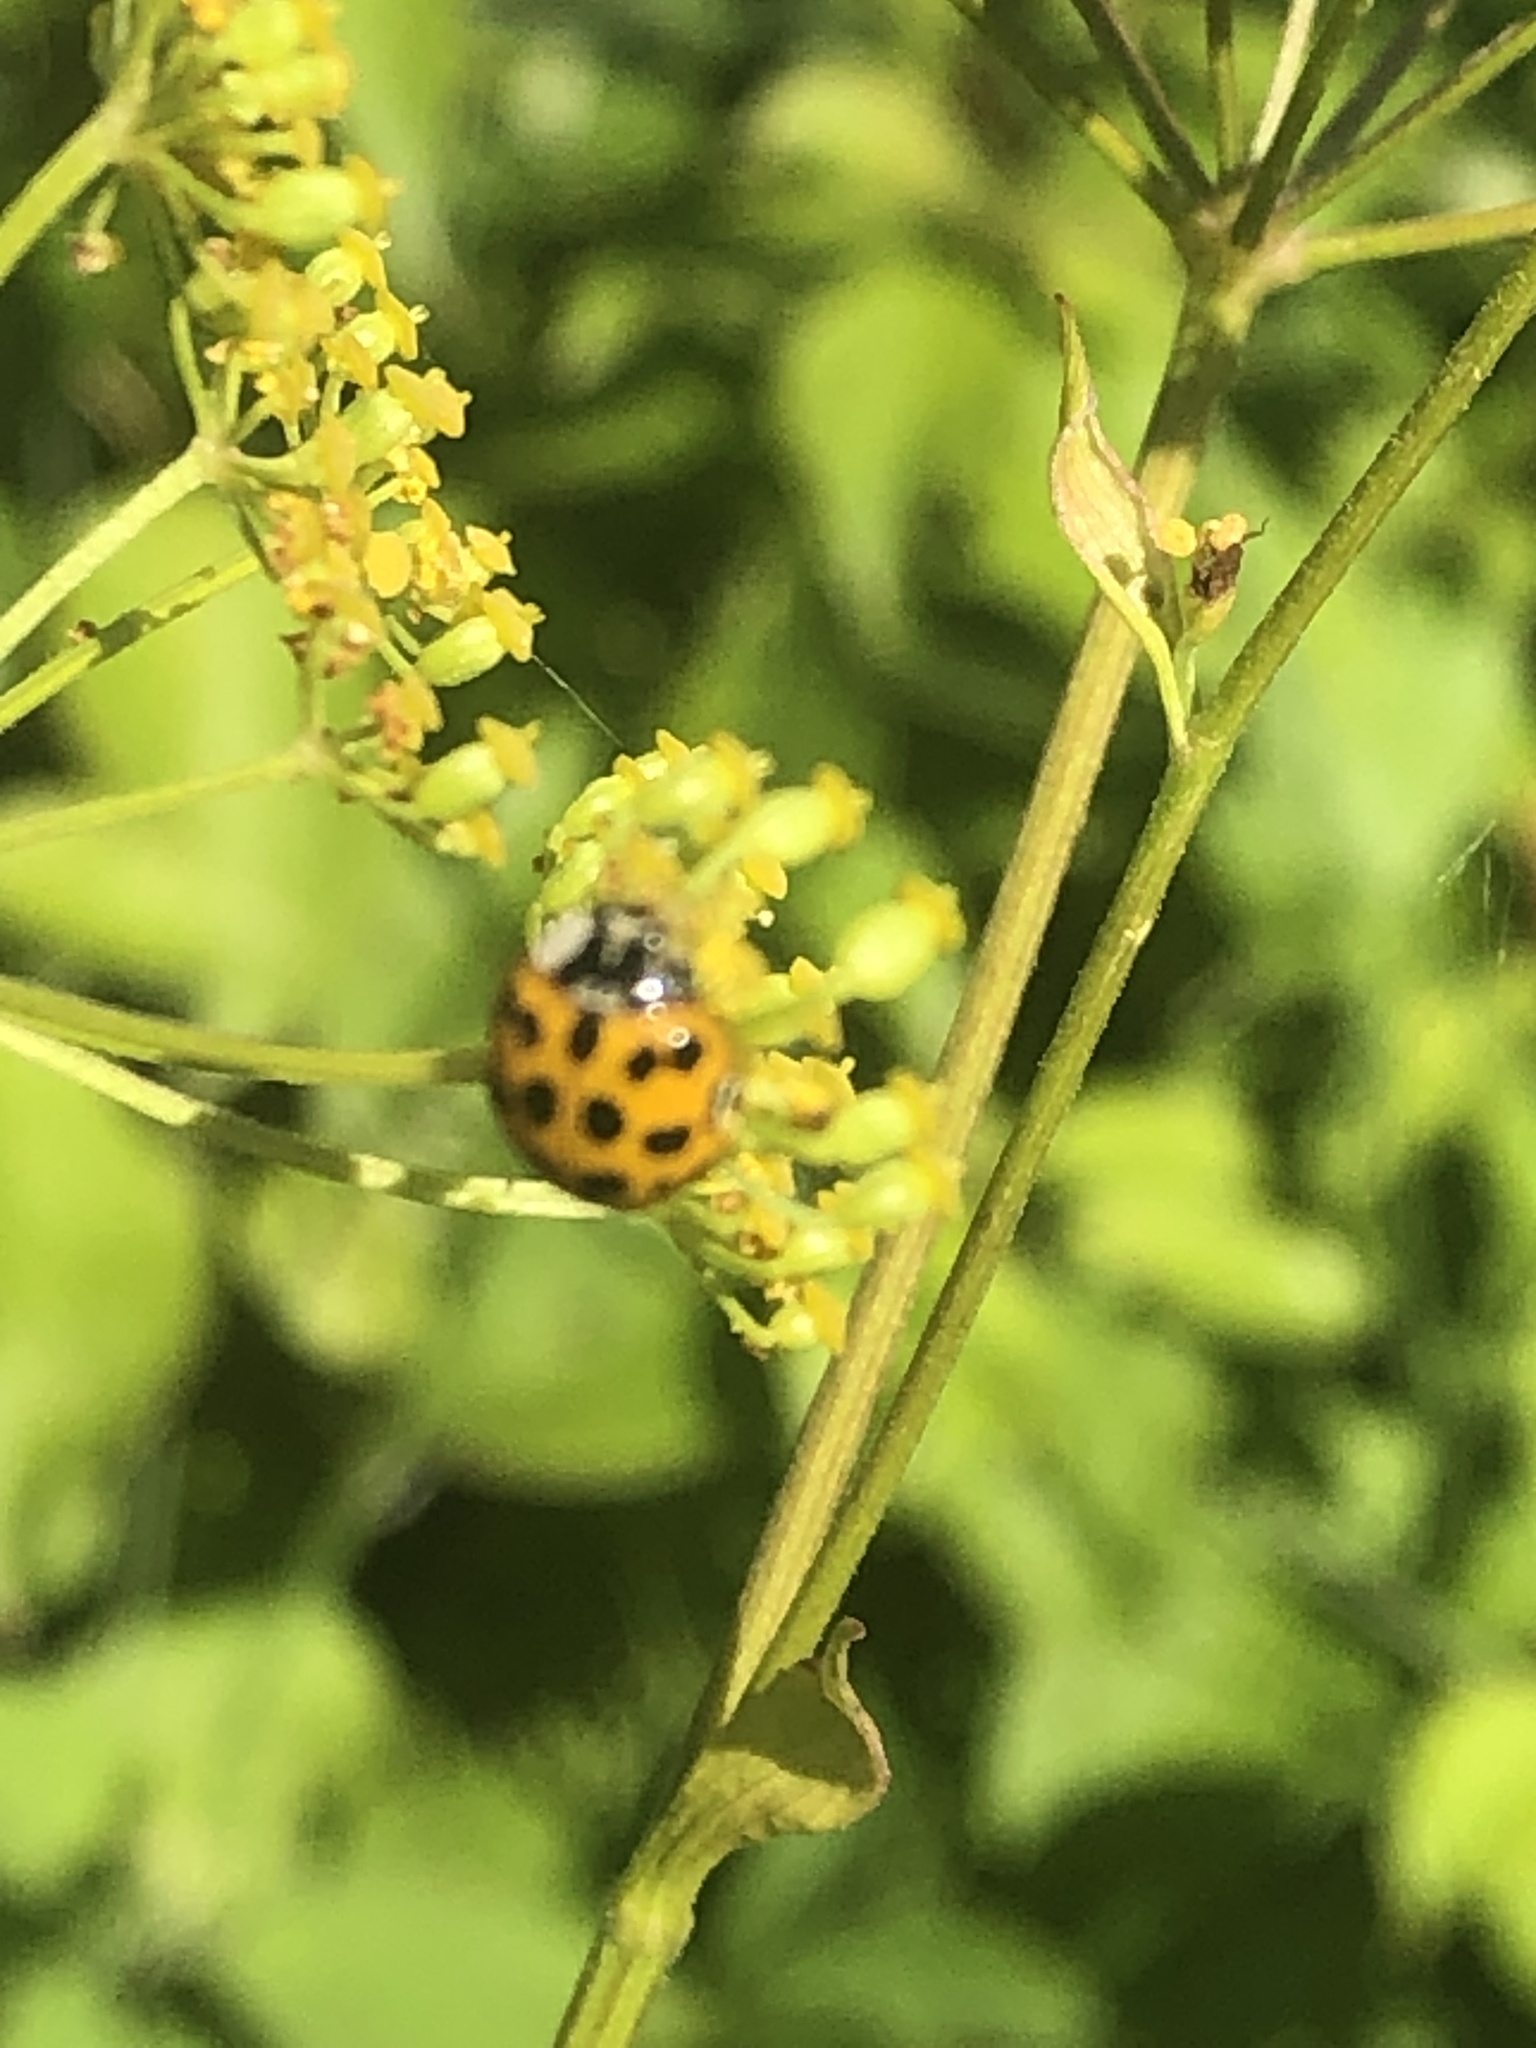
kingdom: Animalia
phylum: Arthropoda
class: Insecta
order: Coleoptera
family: Coccinellidae
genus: Harmonia
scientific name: Harmonia axyridis
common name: Harlequin ladybird
